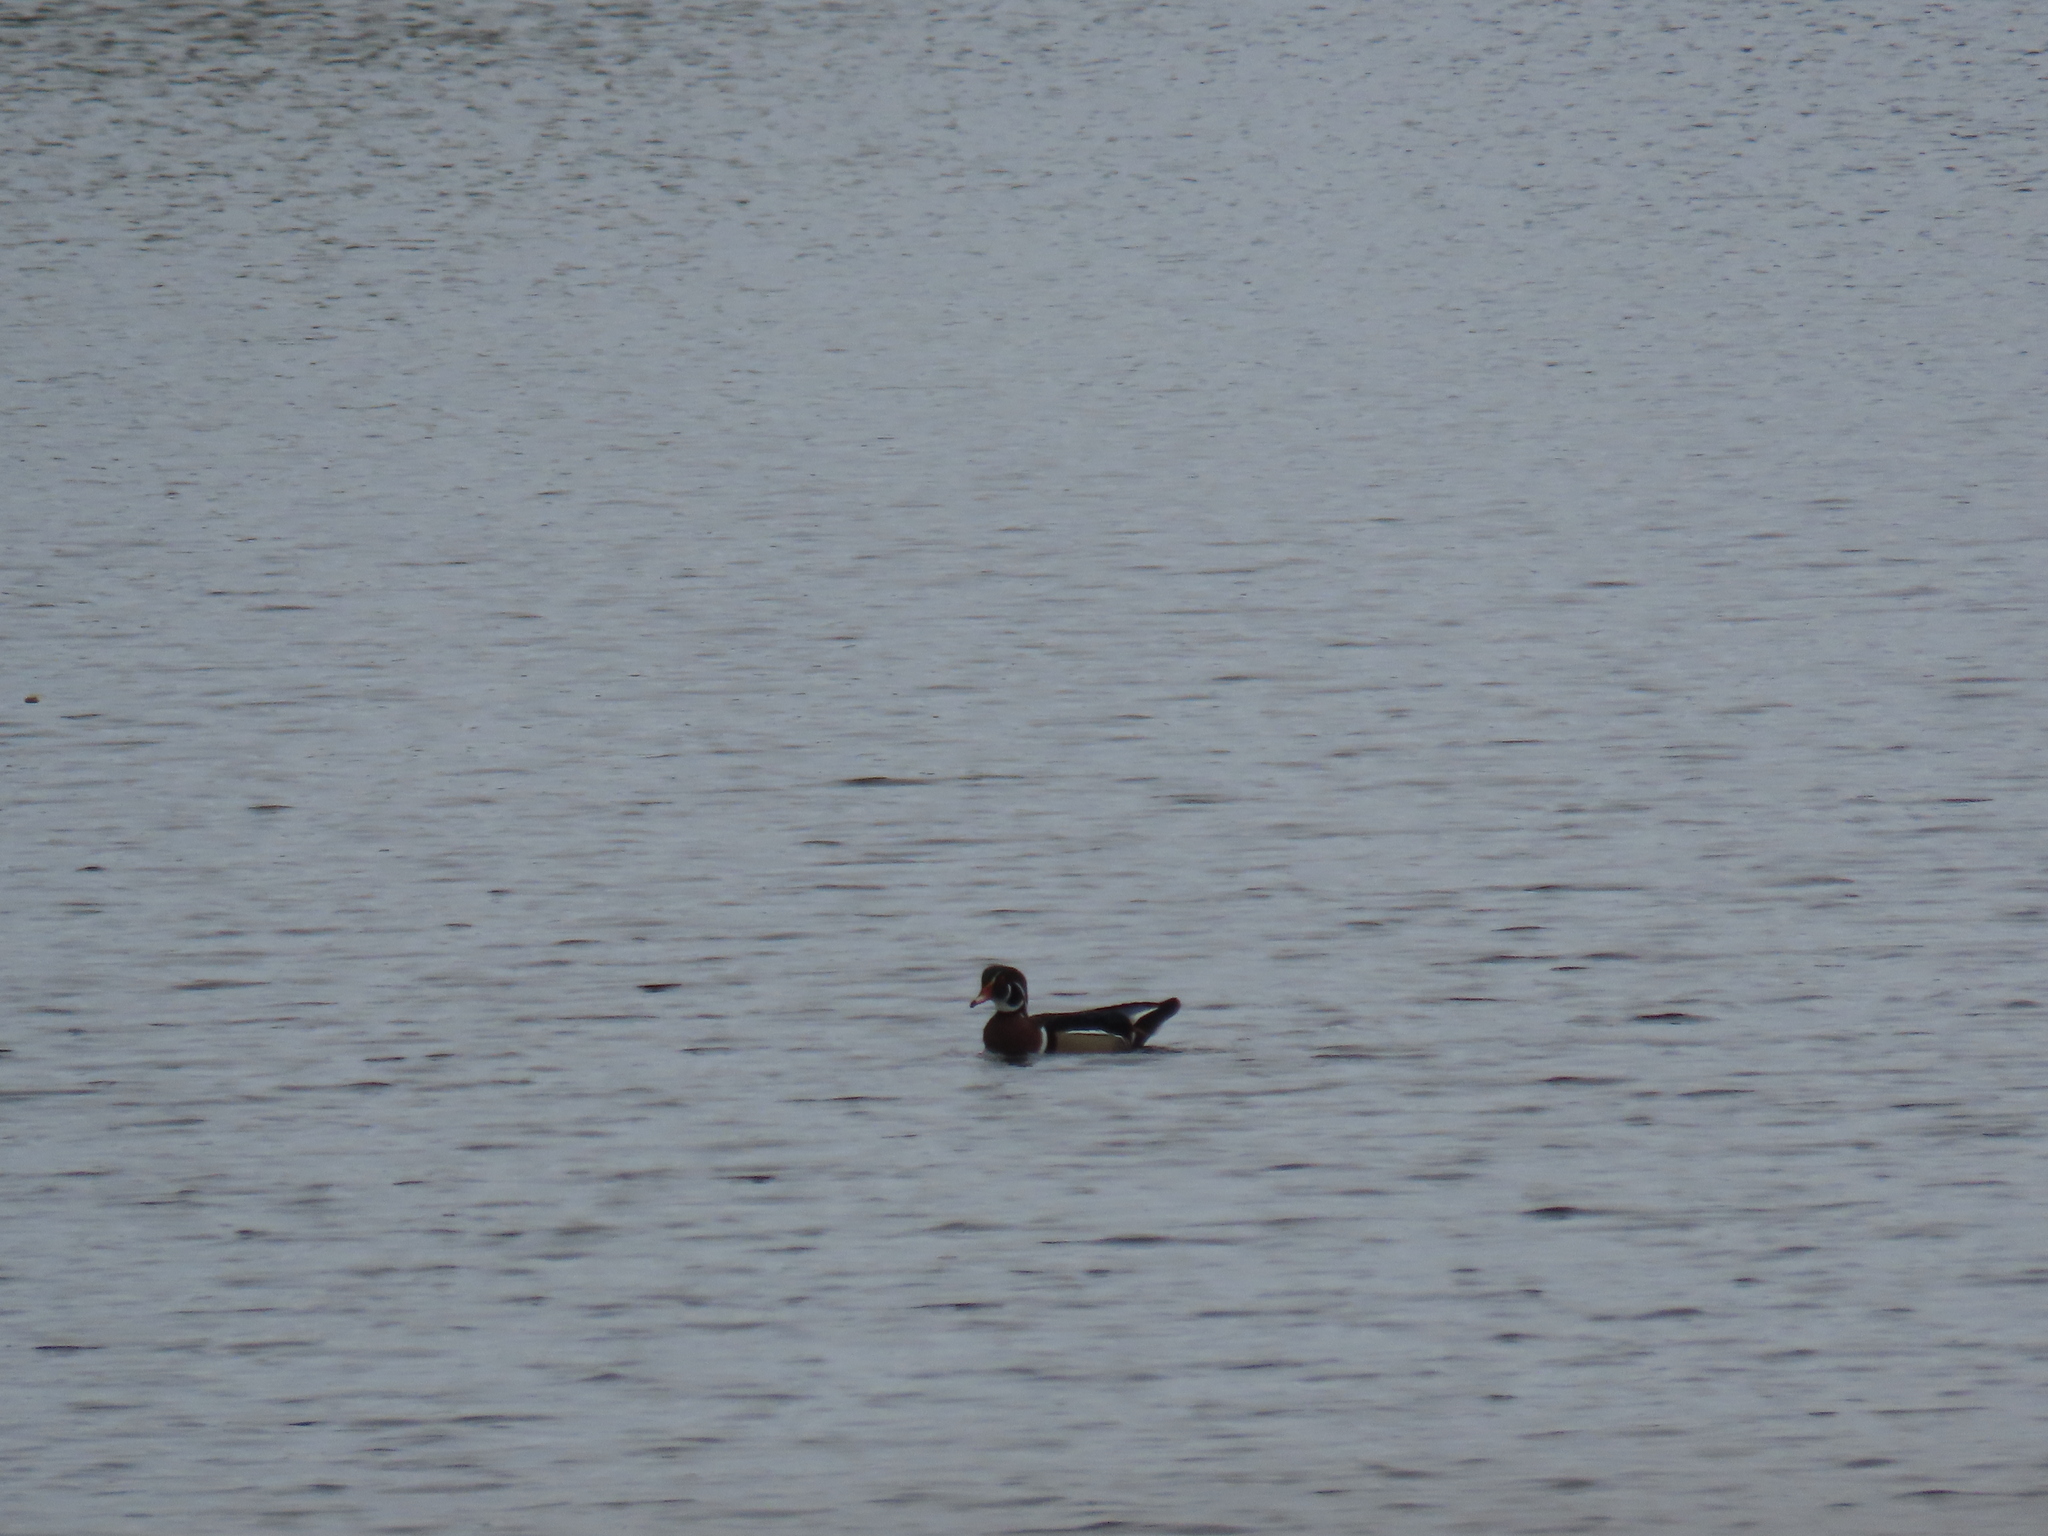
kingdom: Animalia
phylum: Chordata
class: Aves
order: Anseriformes
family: Anatidae
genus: Aix
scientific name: Aix sponsa
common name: Wood duck
